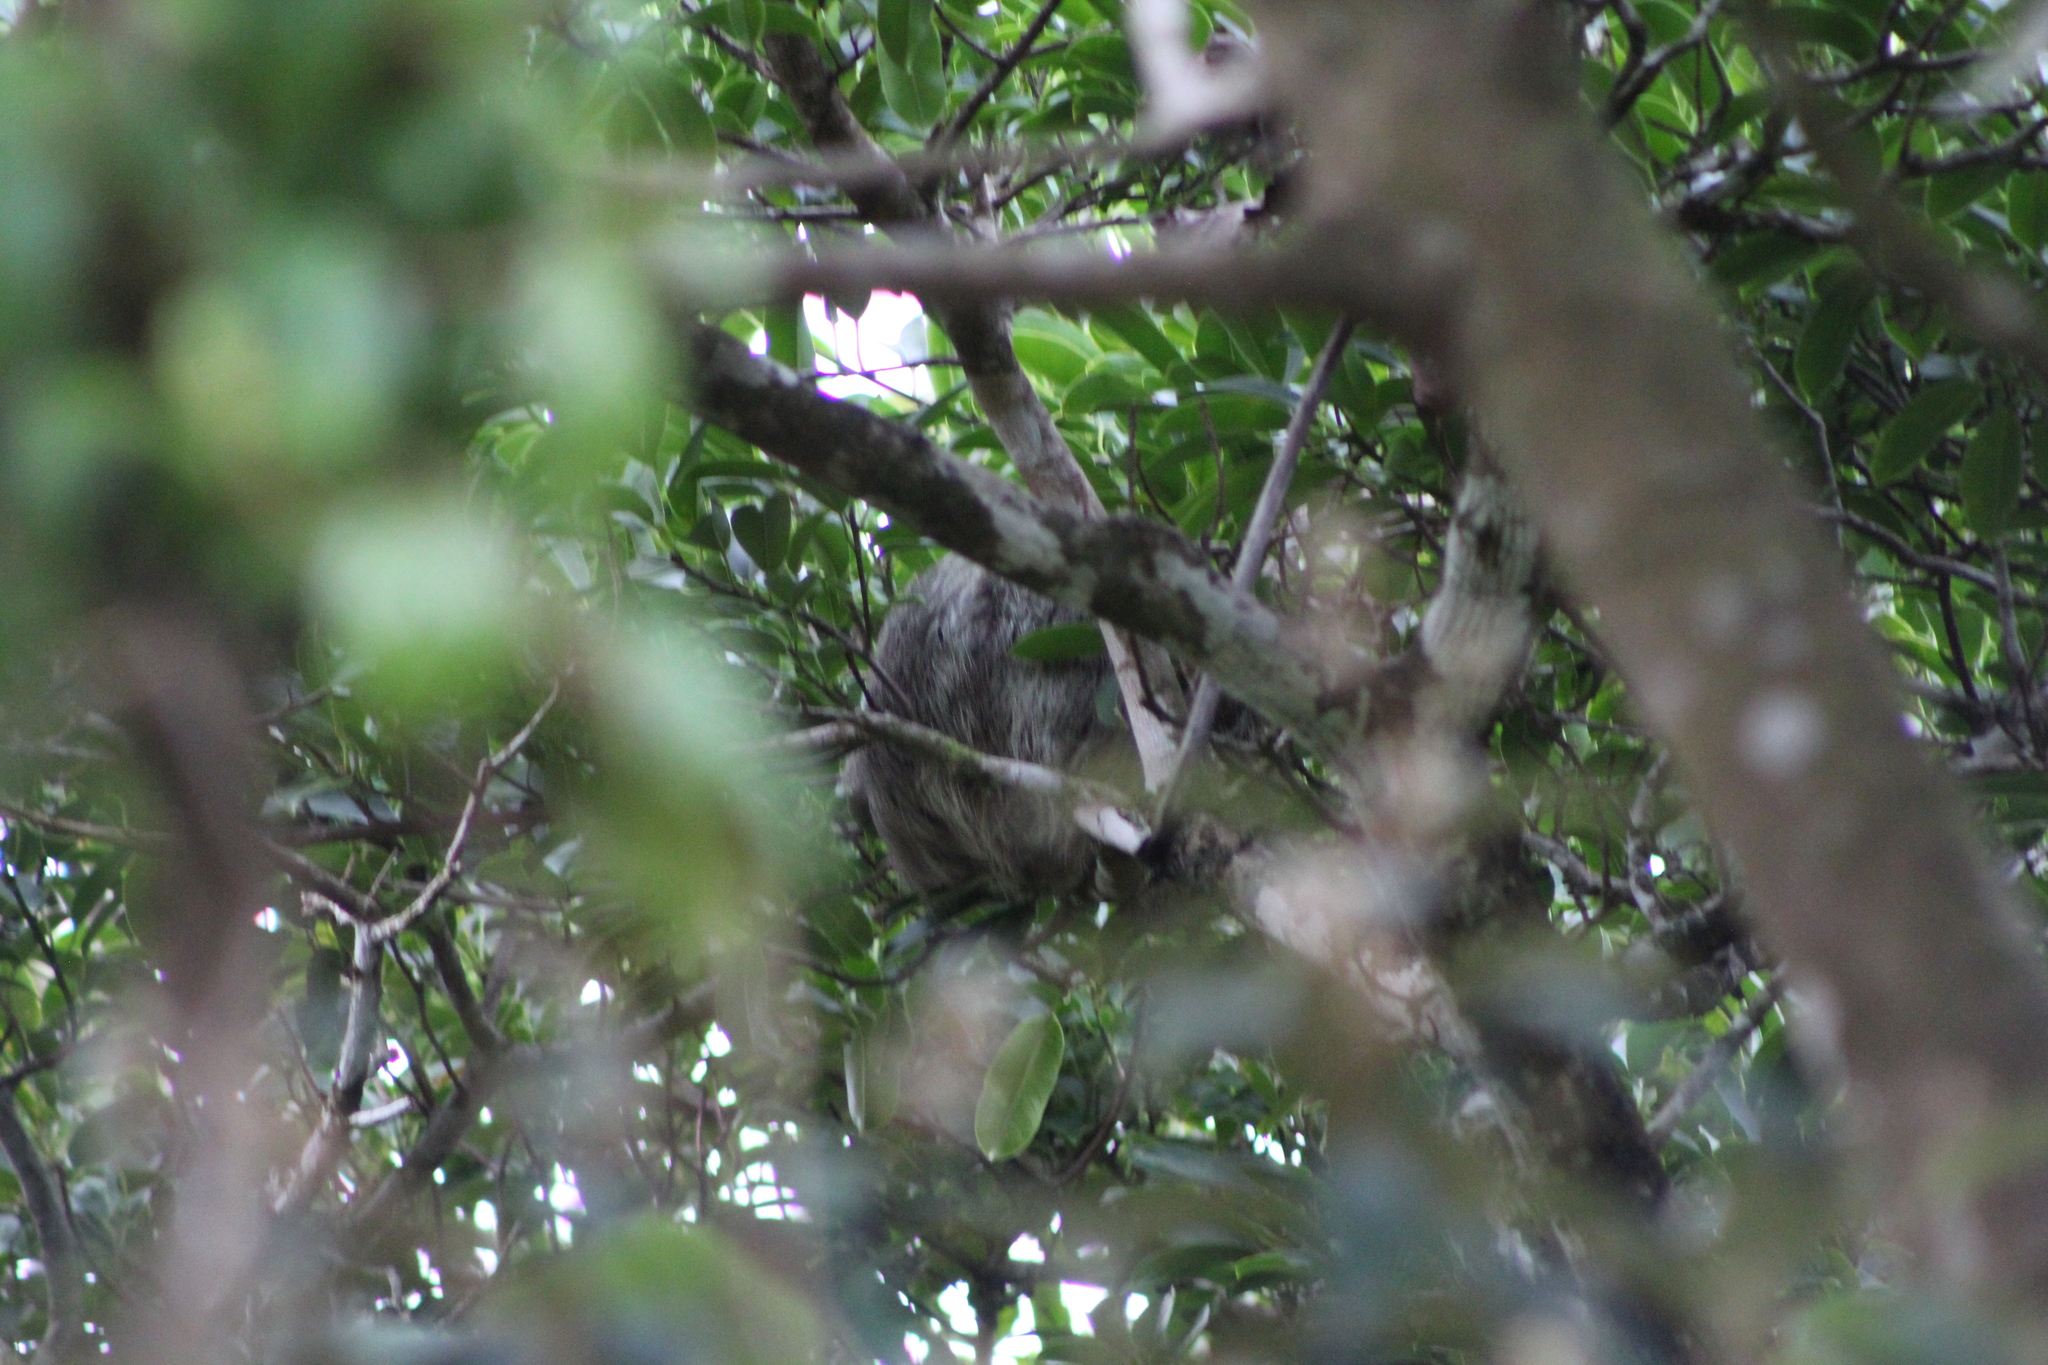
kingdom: Animalia
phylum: Chordata
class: Mammalia
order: Pilosa
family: Bradypodidae
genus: Bradypus
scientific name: Bradypus variegatus
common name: Brown-throated three-toed sloth
